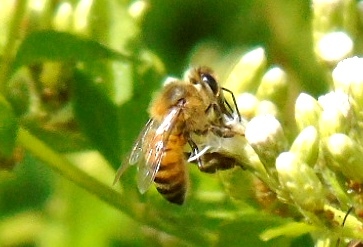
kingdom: Animalia
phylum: Arthropoda
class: Insecta
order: Hymenoptera
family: Apidae
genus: Apis
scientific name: Apis mellifera
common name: Honey bee
